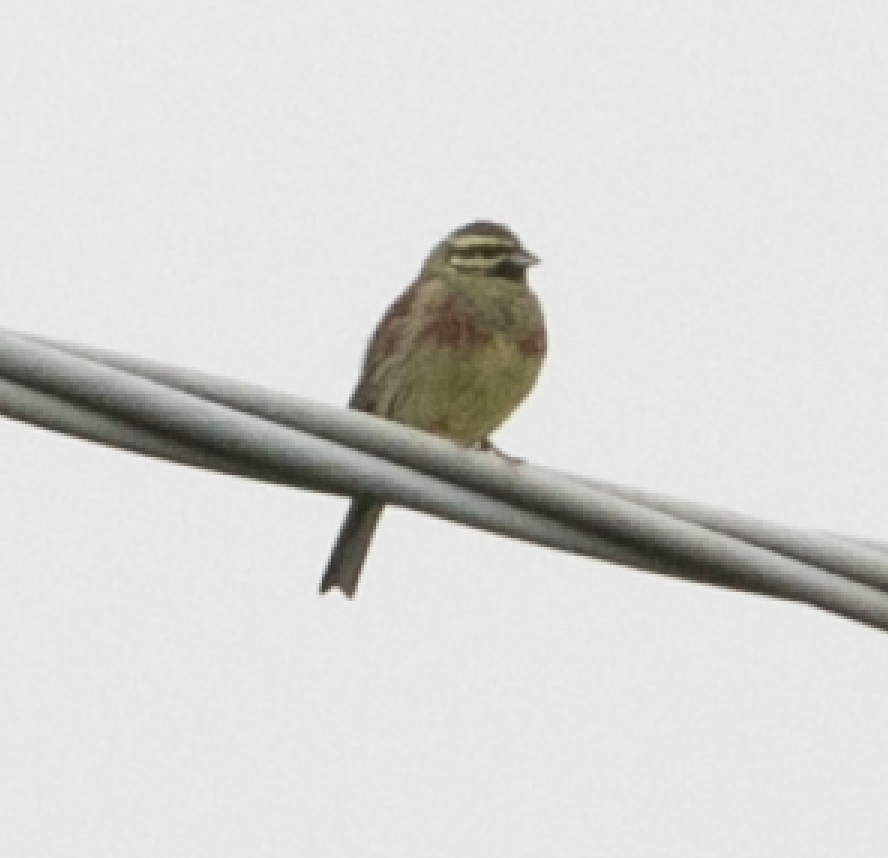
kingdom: Animalia
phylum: Chordata
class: Aves
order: Passeriformes
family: Emberizidae
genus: Emberiza
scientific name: Emberiza cirlus
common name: Cirl bunting
